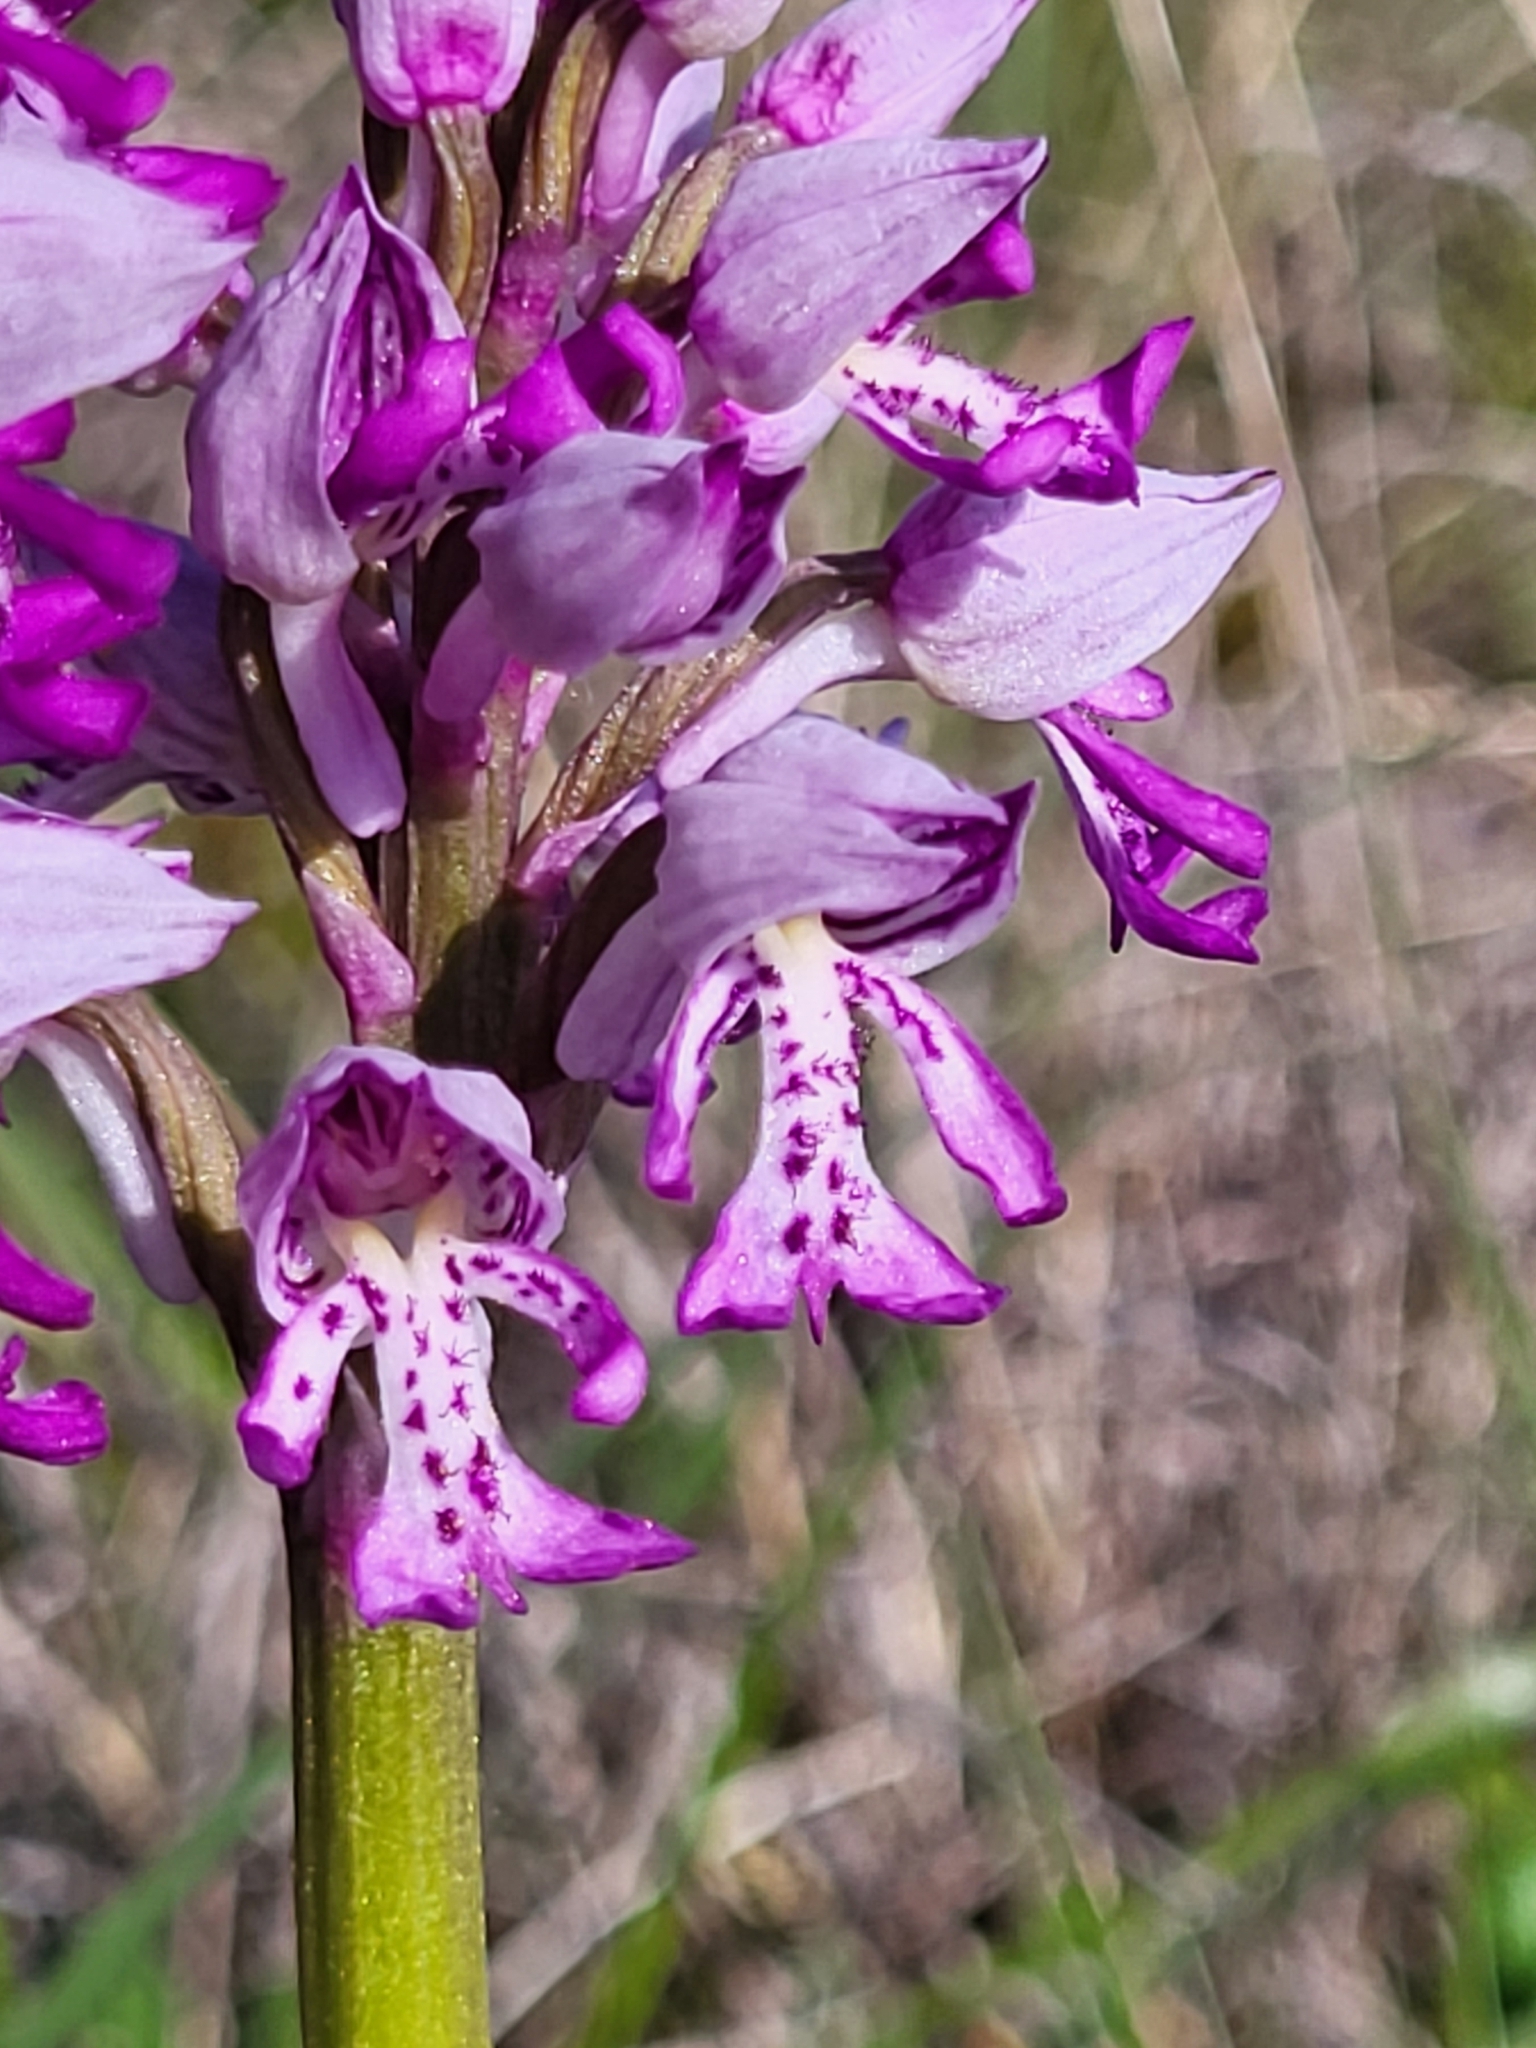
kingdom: Plantae
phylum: Tracheophyta
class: Liliopsida
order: Asparagales
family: Orchidaceae
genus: Orchis
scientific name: Orchis militaris
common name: Military orchid
